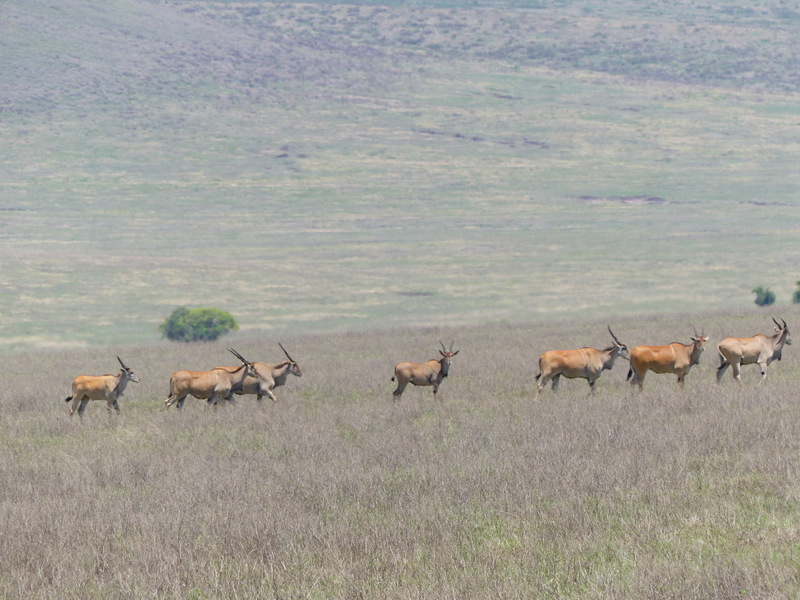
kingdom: Animalia
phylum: Chordata
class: Mammalia
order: Artiodactyla
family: Bovidae
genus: Taurotragus
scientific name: Taurotragus oryx
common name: Common eland
